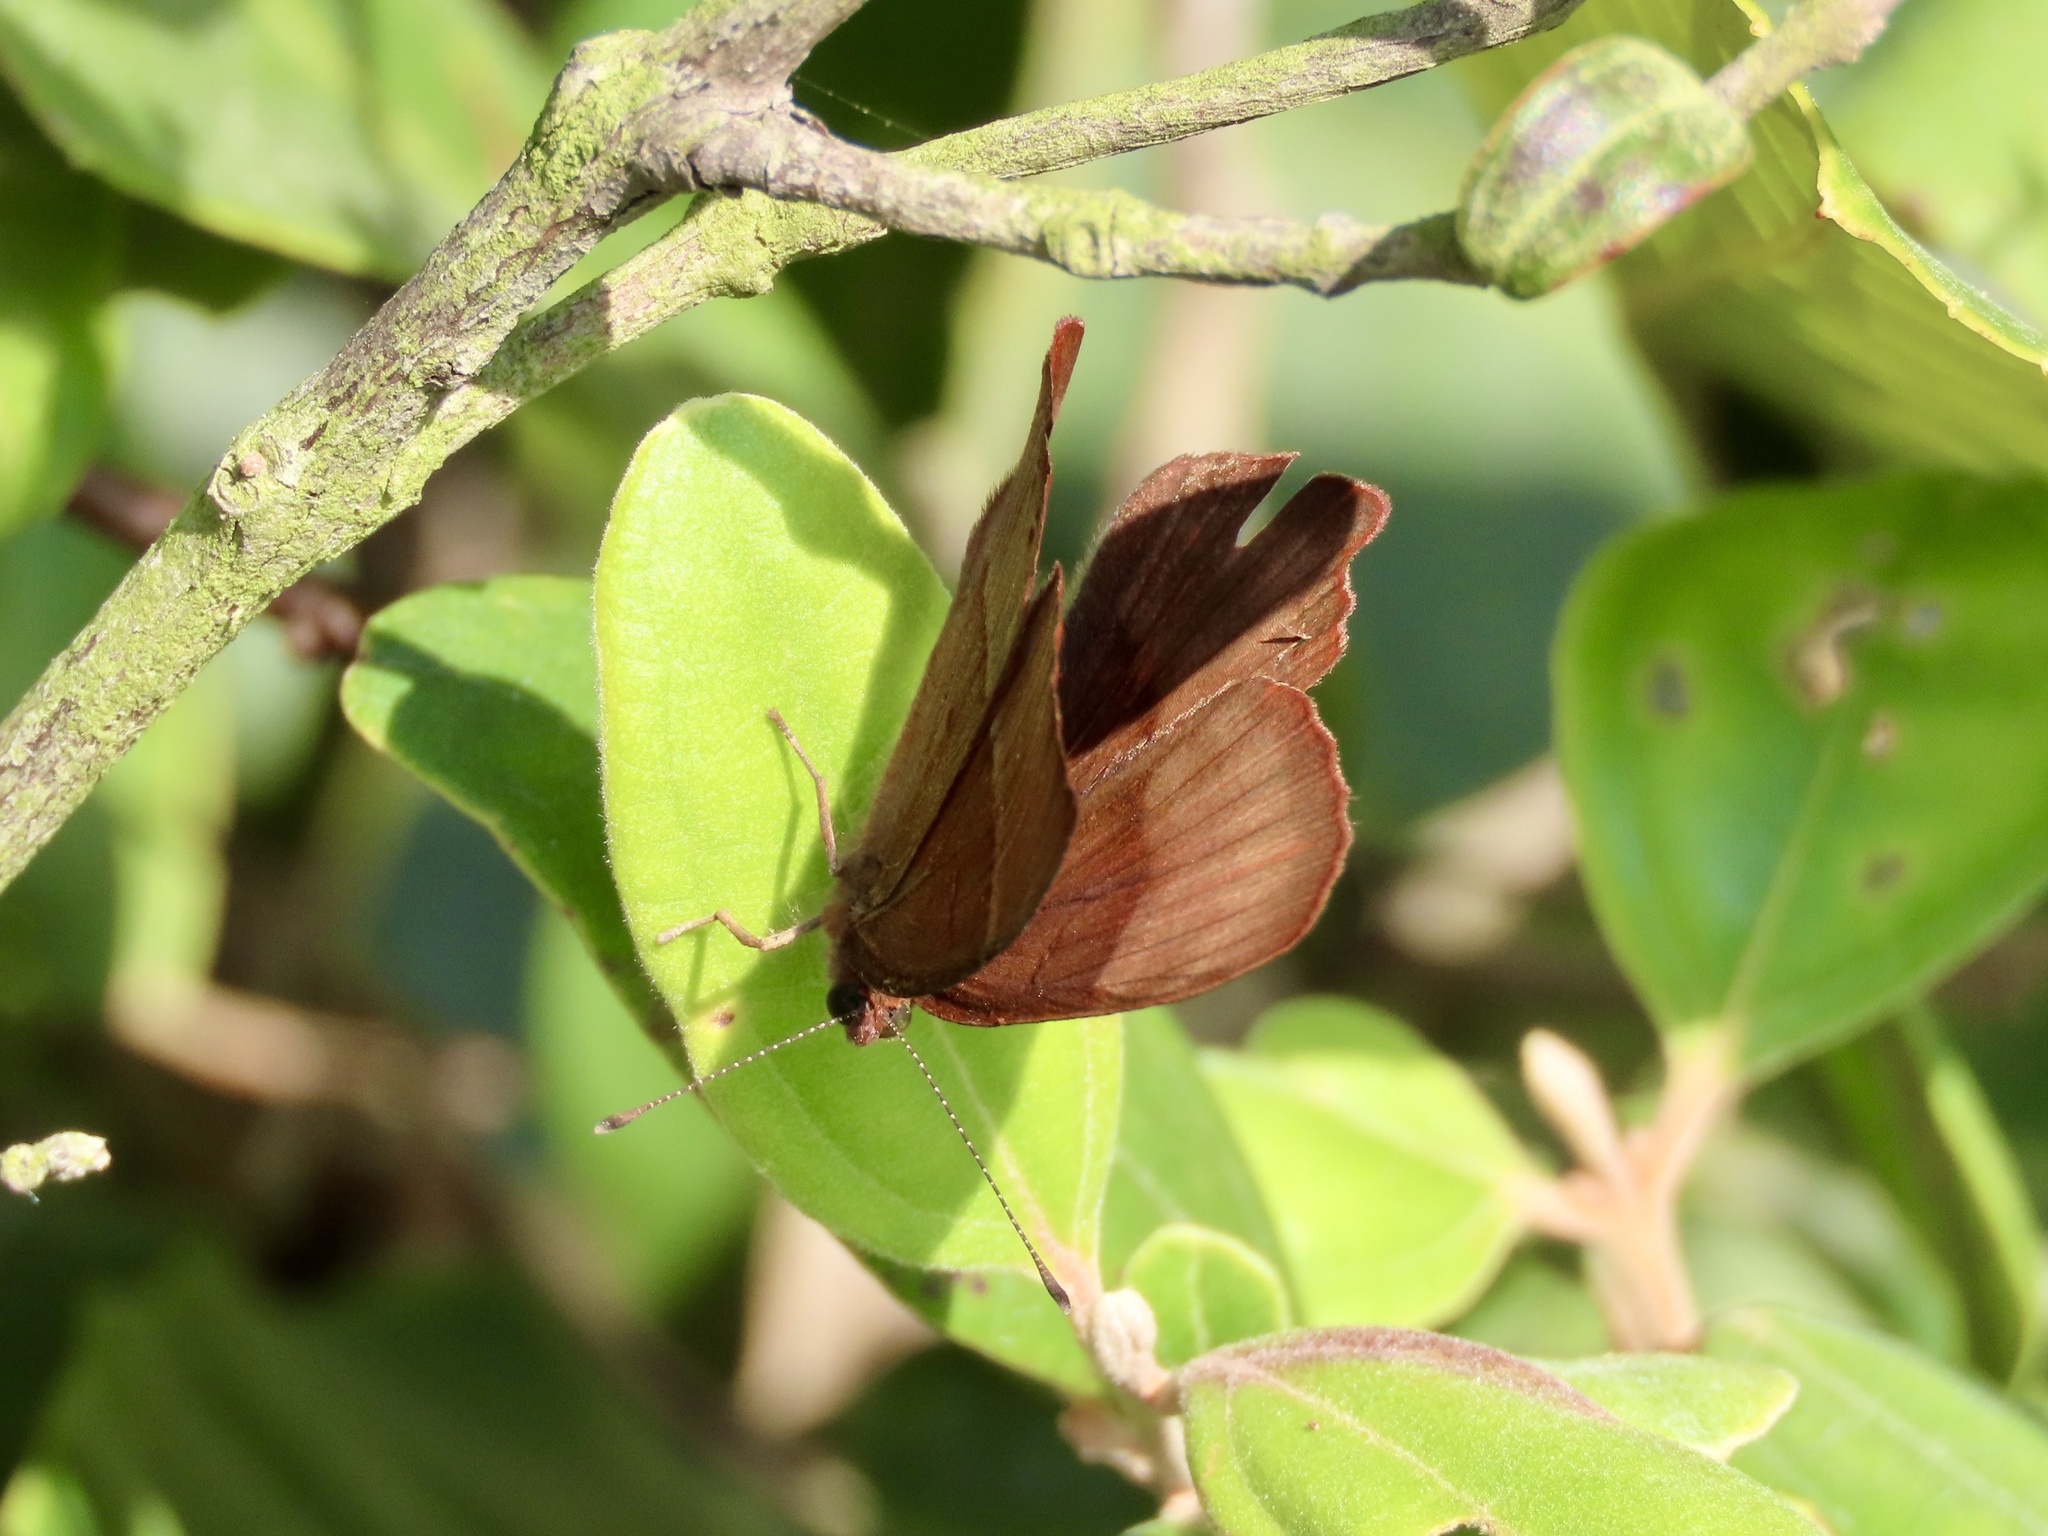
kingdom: Animalia
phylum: Arthropoda
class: Insecta
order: Lepidoptera
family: Lycaenidae
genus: Abisara
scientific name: Abisara echeria
